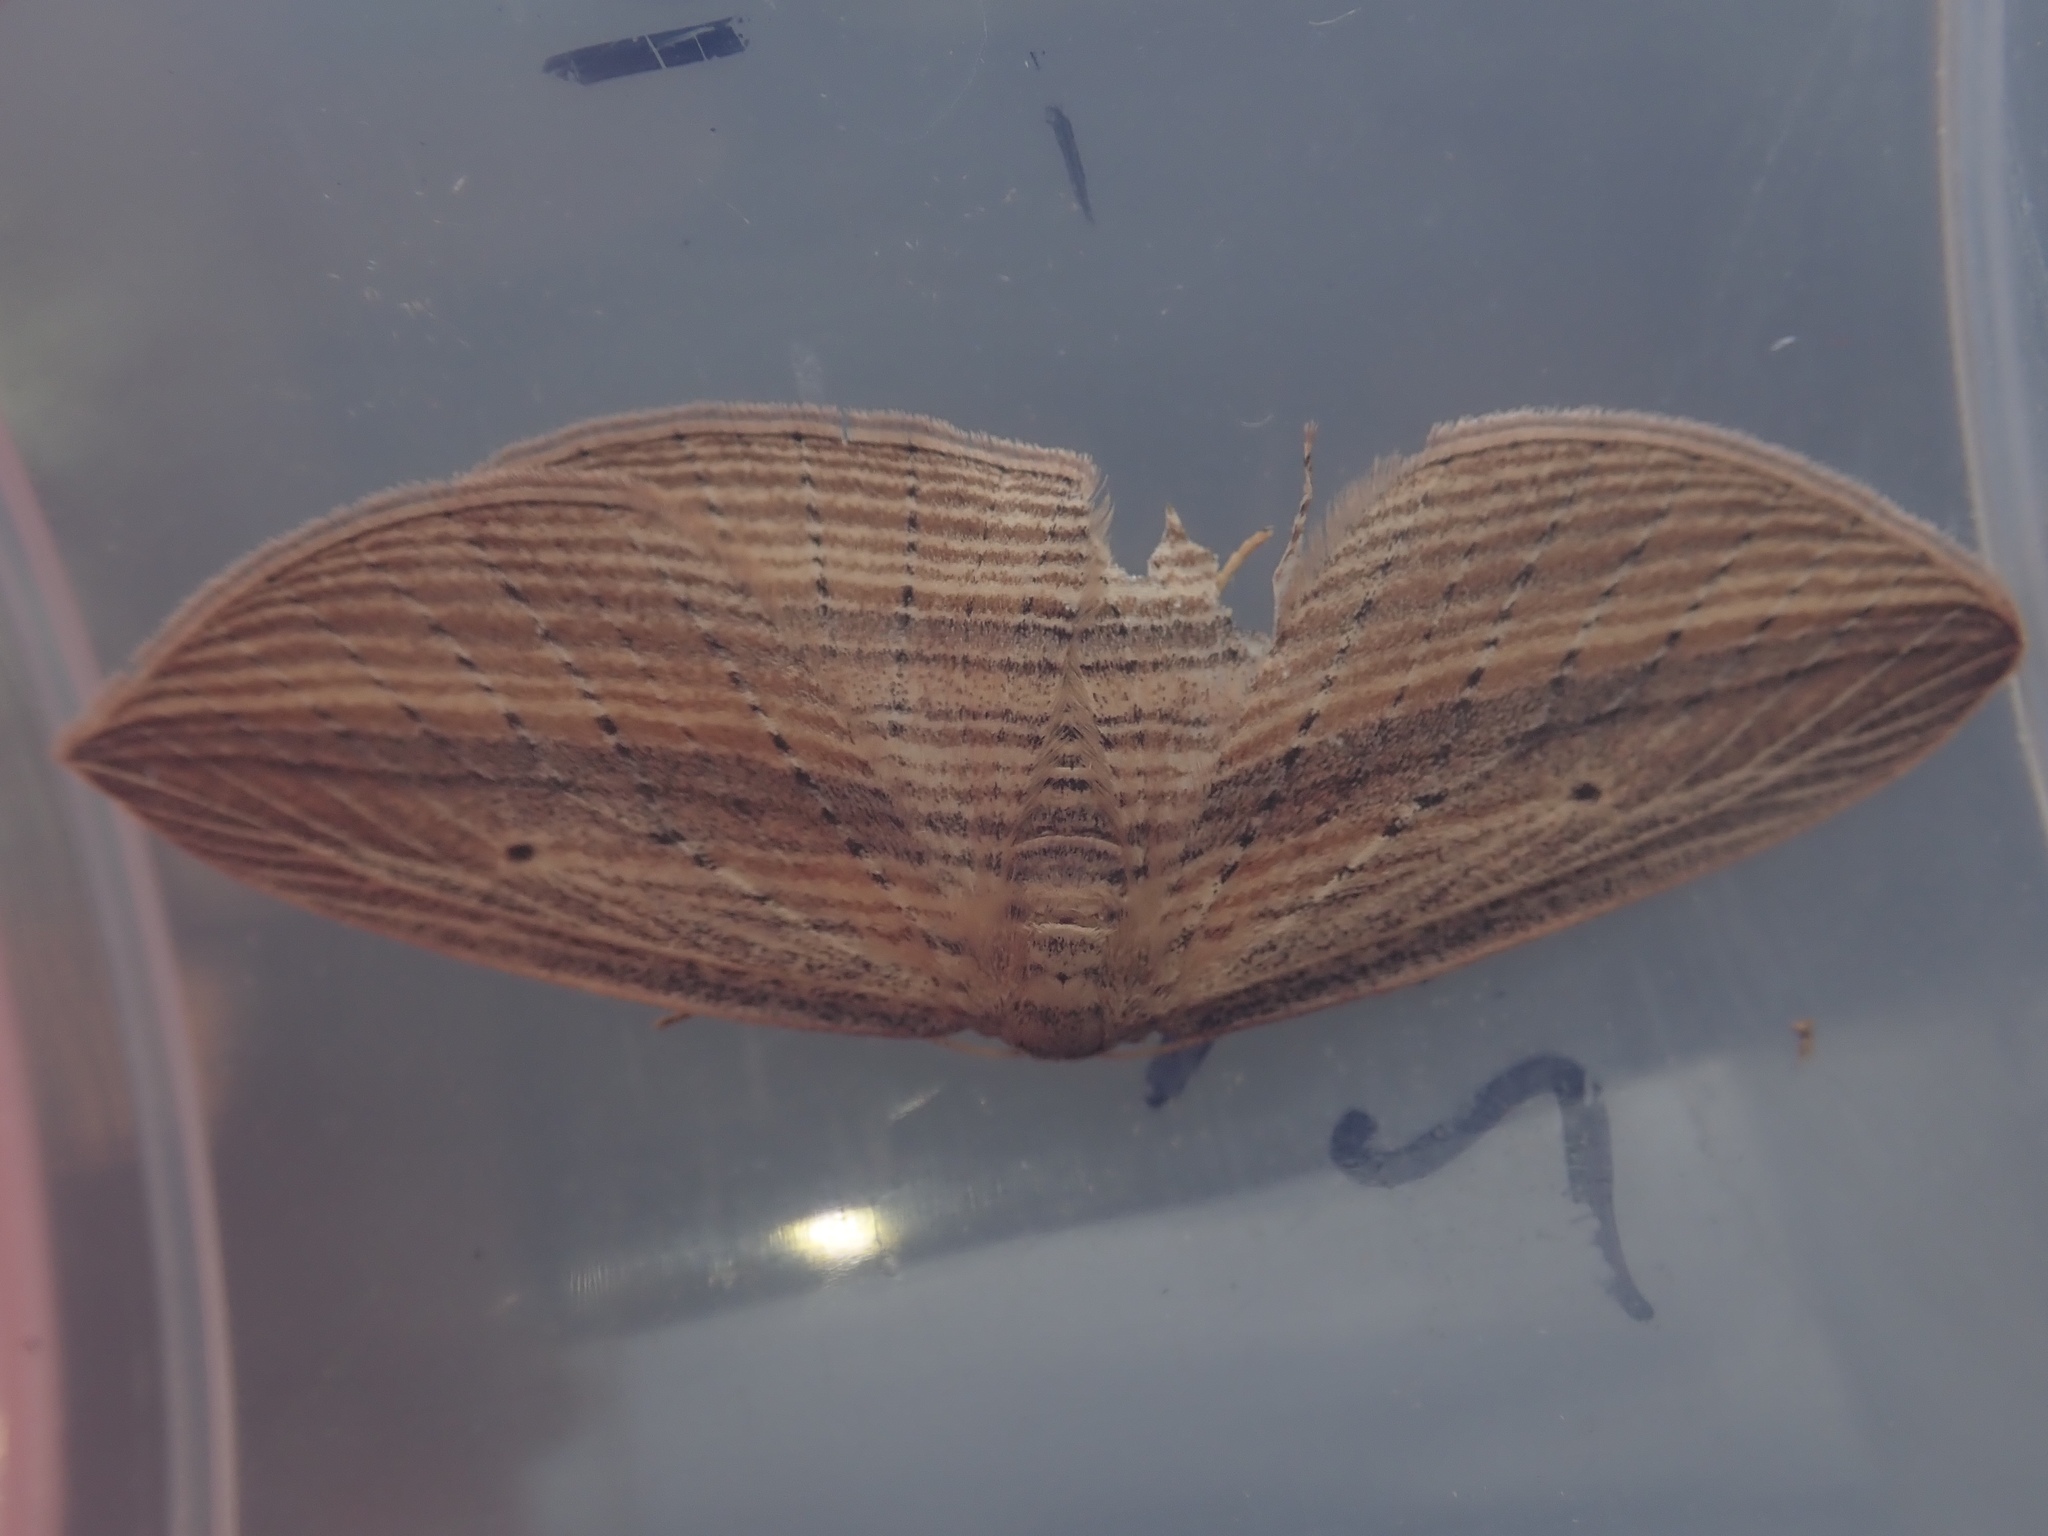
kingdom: Animalia
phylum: Arthropoda
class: Insecta
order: Lepidoptera
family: Geometridae
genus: Epiphryne
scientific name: Epiphryne verriculata
